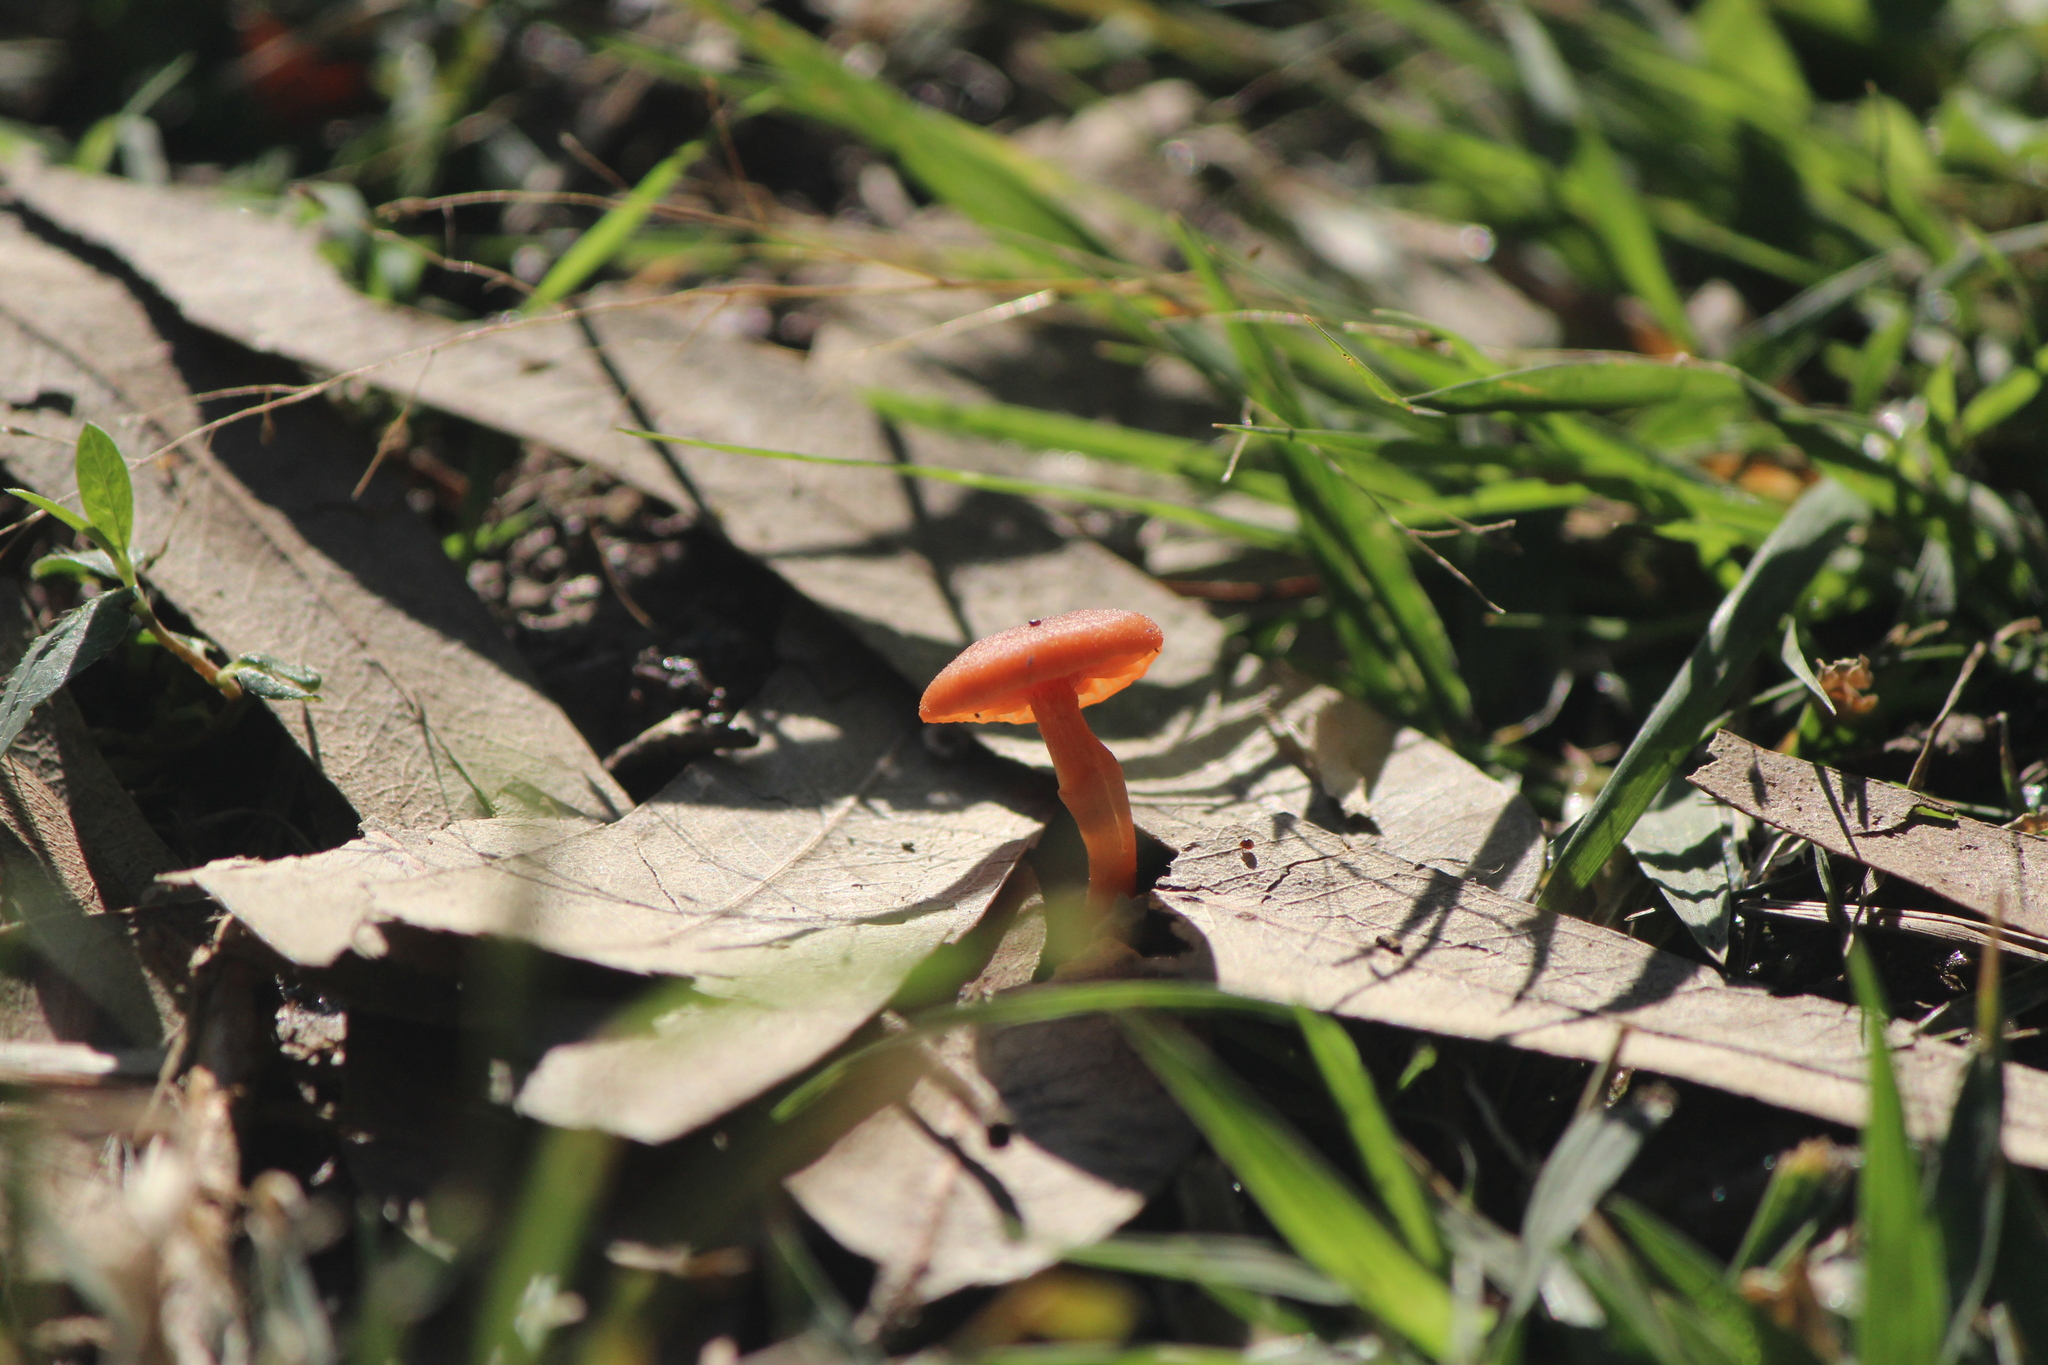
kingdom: Fungi
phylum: Basidiomycota
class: Agaricomycetes
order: Agaricales
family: Hydnangiaceae
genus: Laccaria
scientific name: Laccaria laccata
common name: Deceiver
